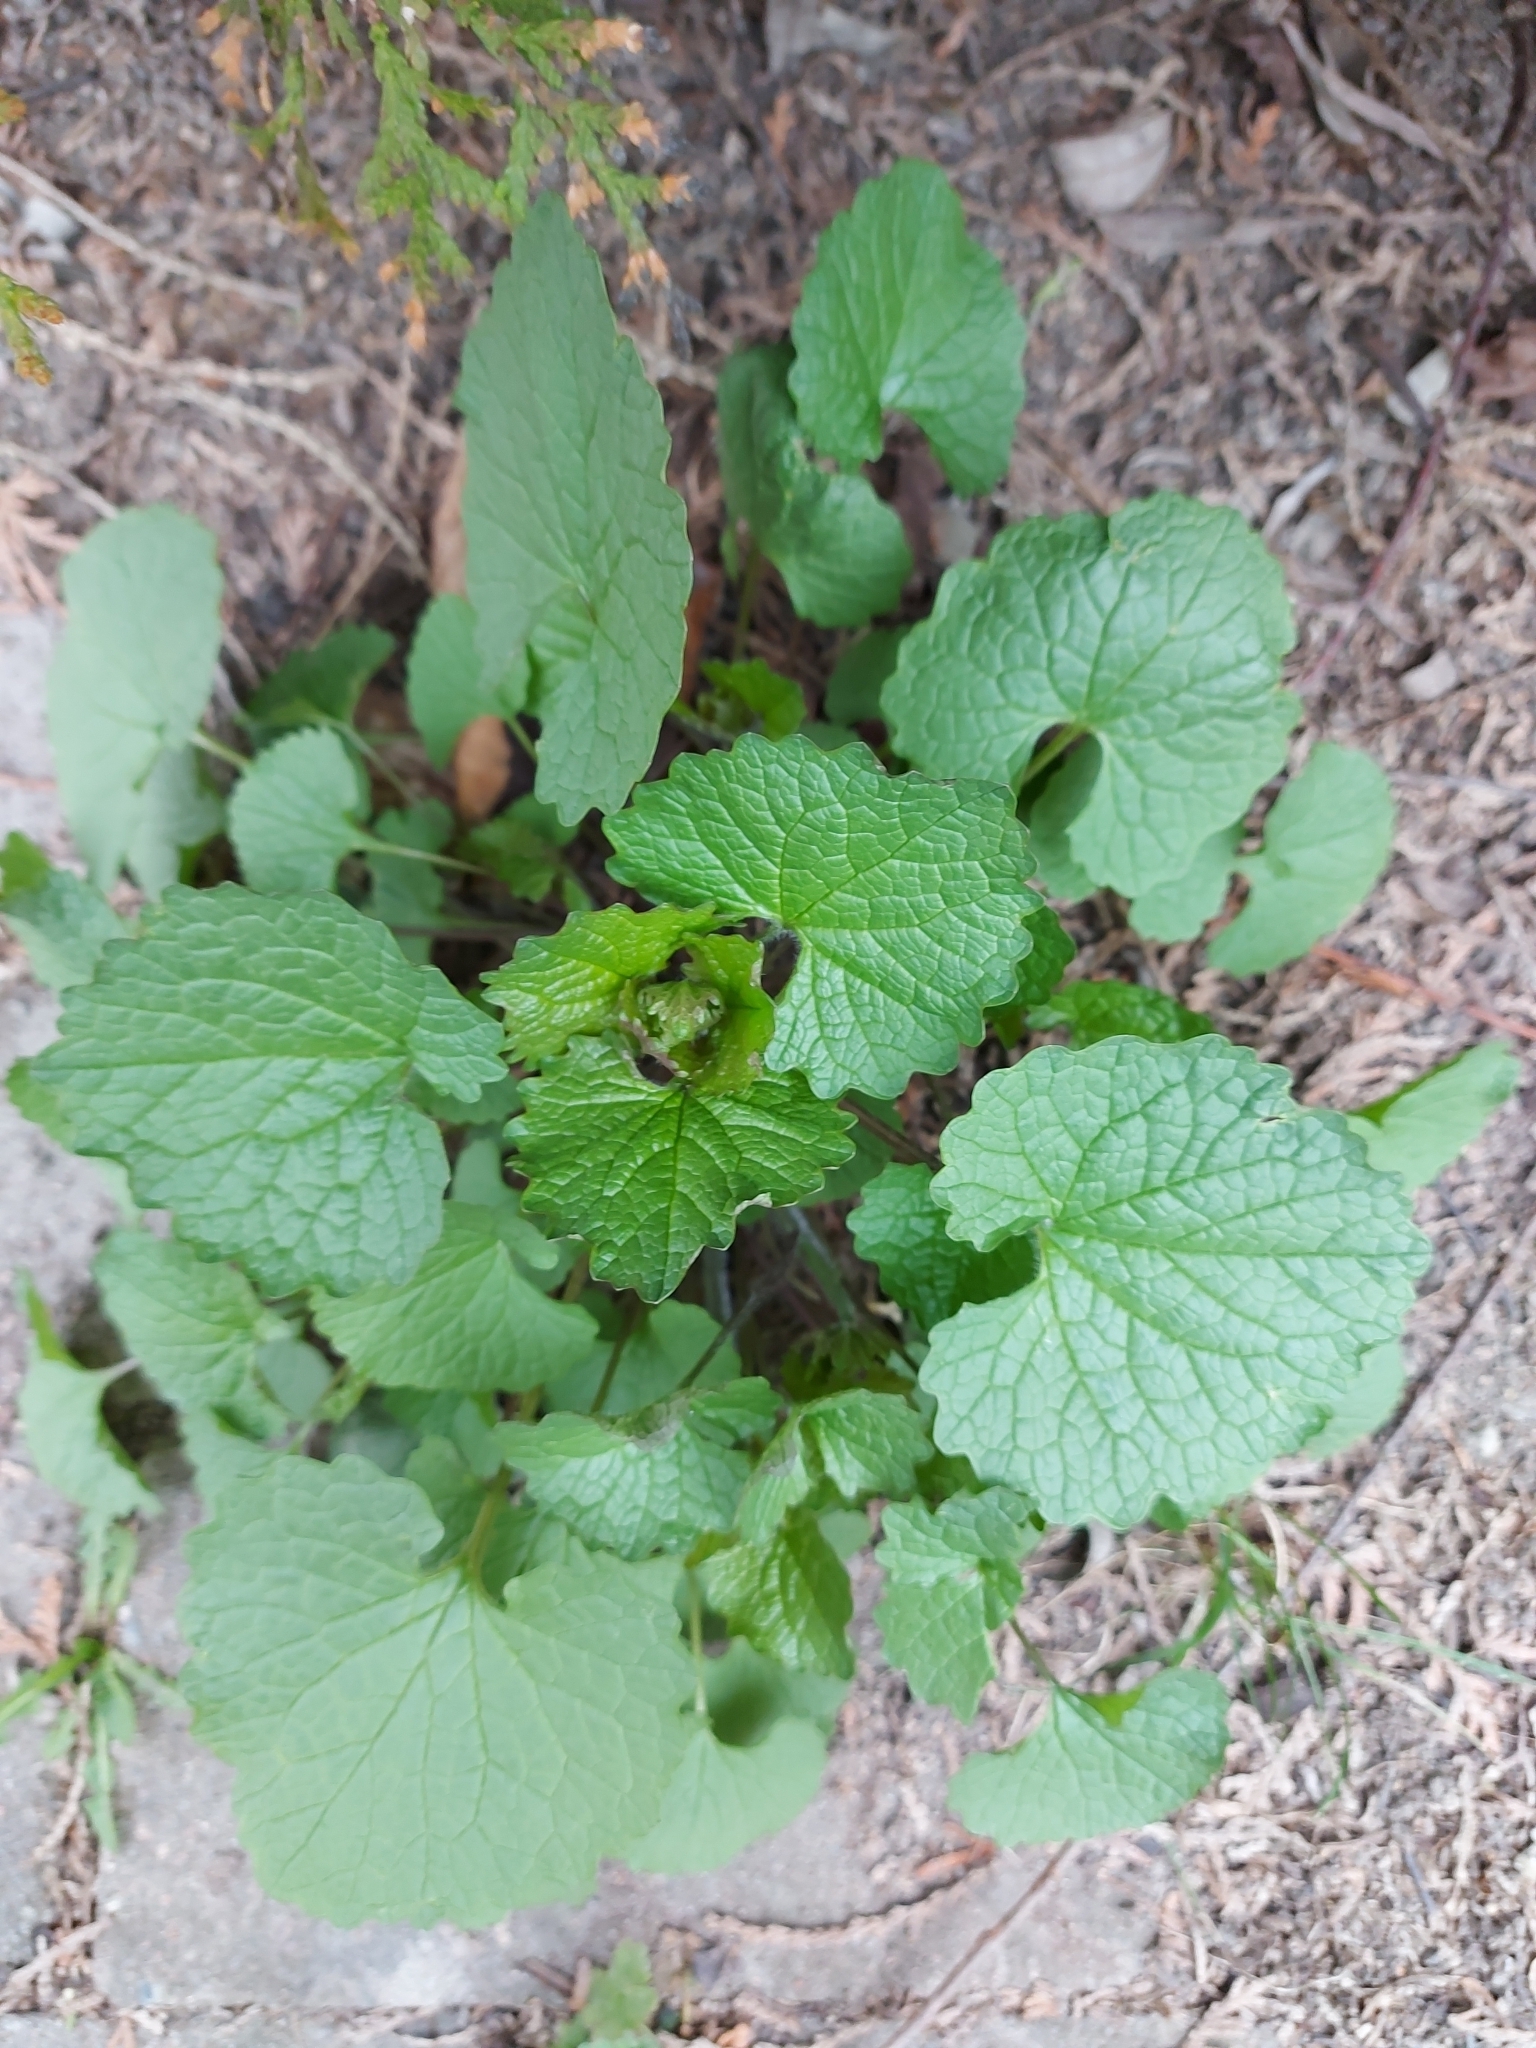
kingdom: Plantae
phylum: Tracheophyta
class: Magnoliopsida
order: Brassicales
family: Brassicaceae
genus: Alliaria
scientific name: Alliaria petiolata
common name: Garlic mustard
